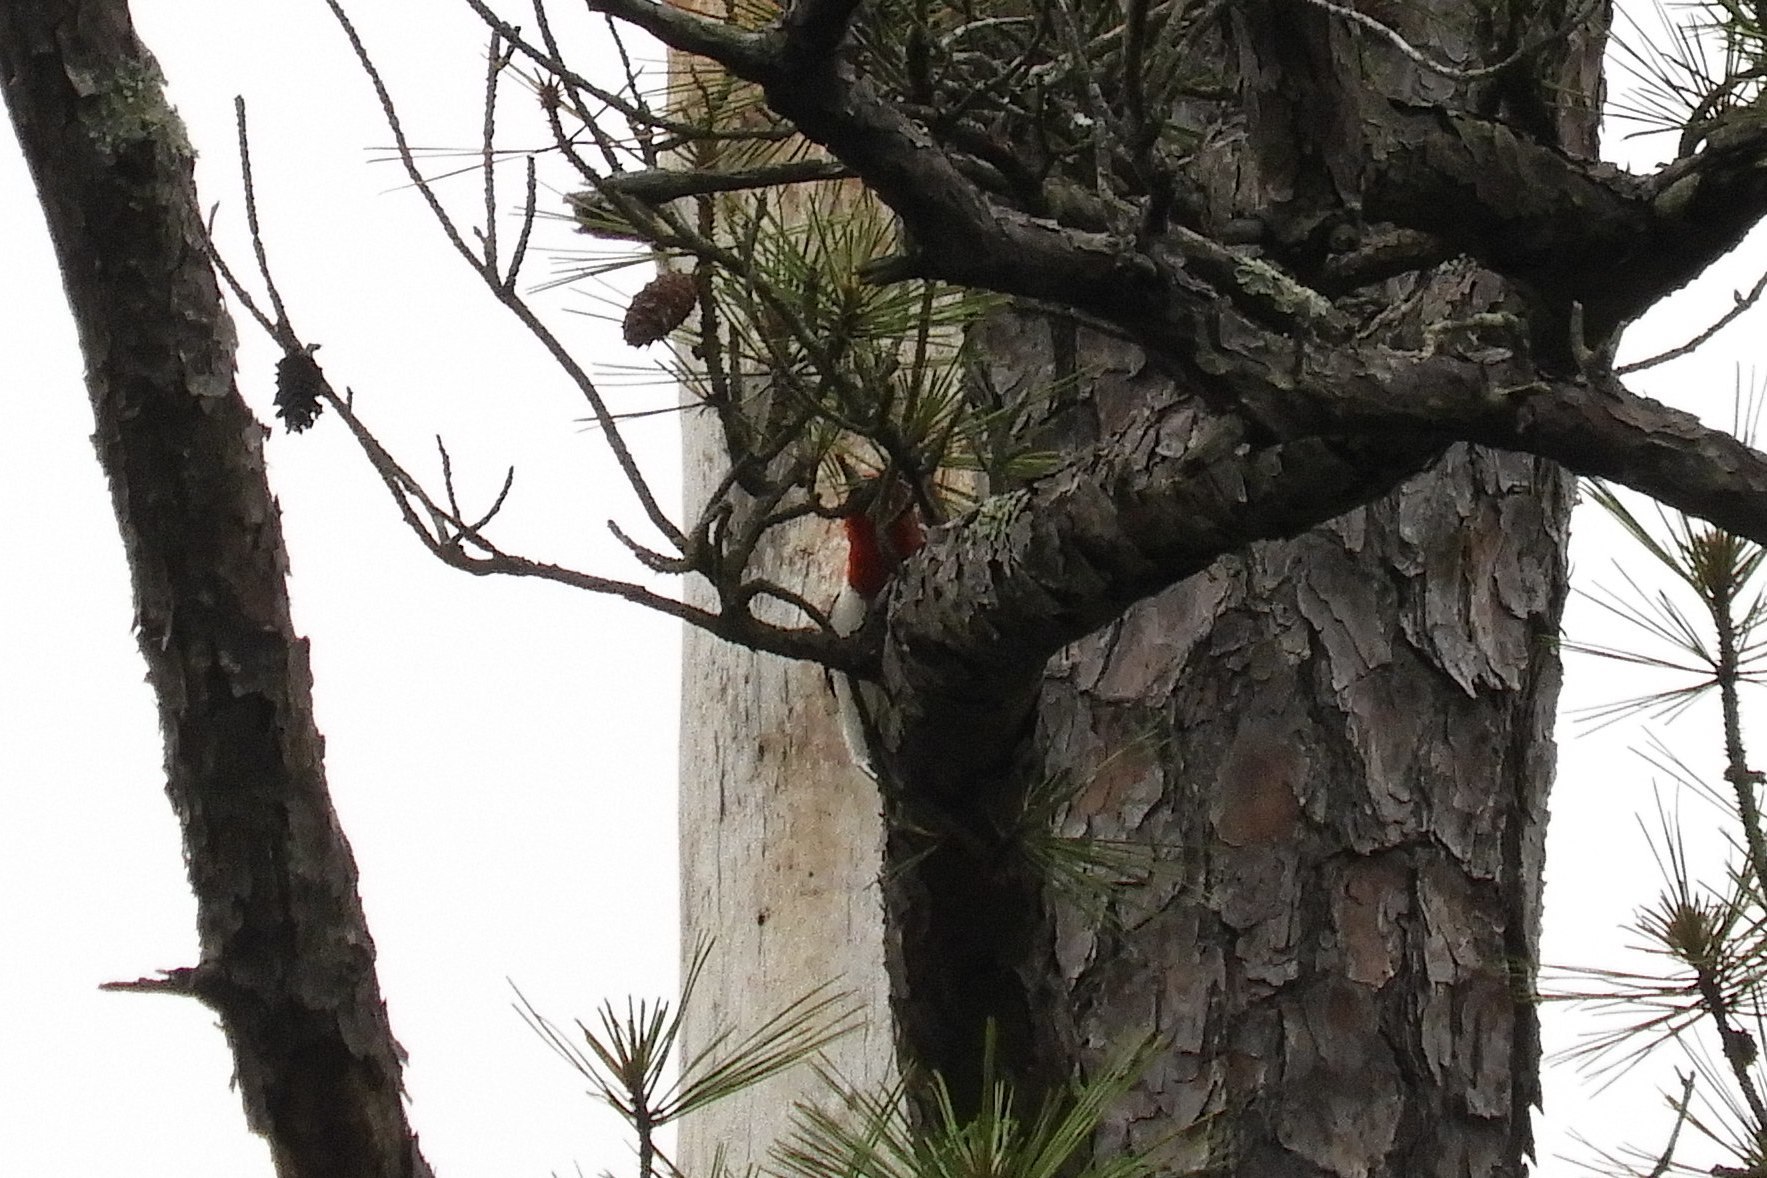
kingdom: Animalia
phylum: Chordata
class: Aves
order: Piciformes
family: Picidae
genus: Melanerpes
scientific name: Melanerpes erythrocephalus
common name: Red-headed woodpecker
